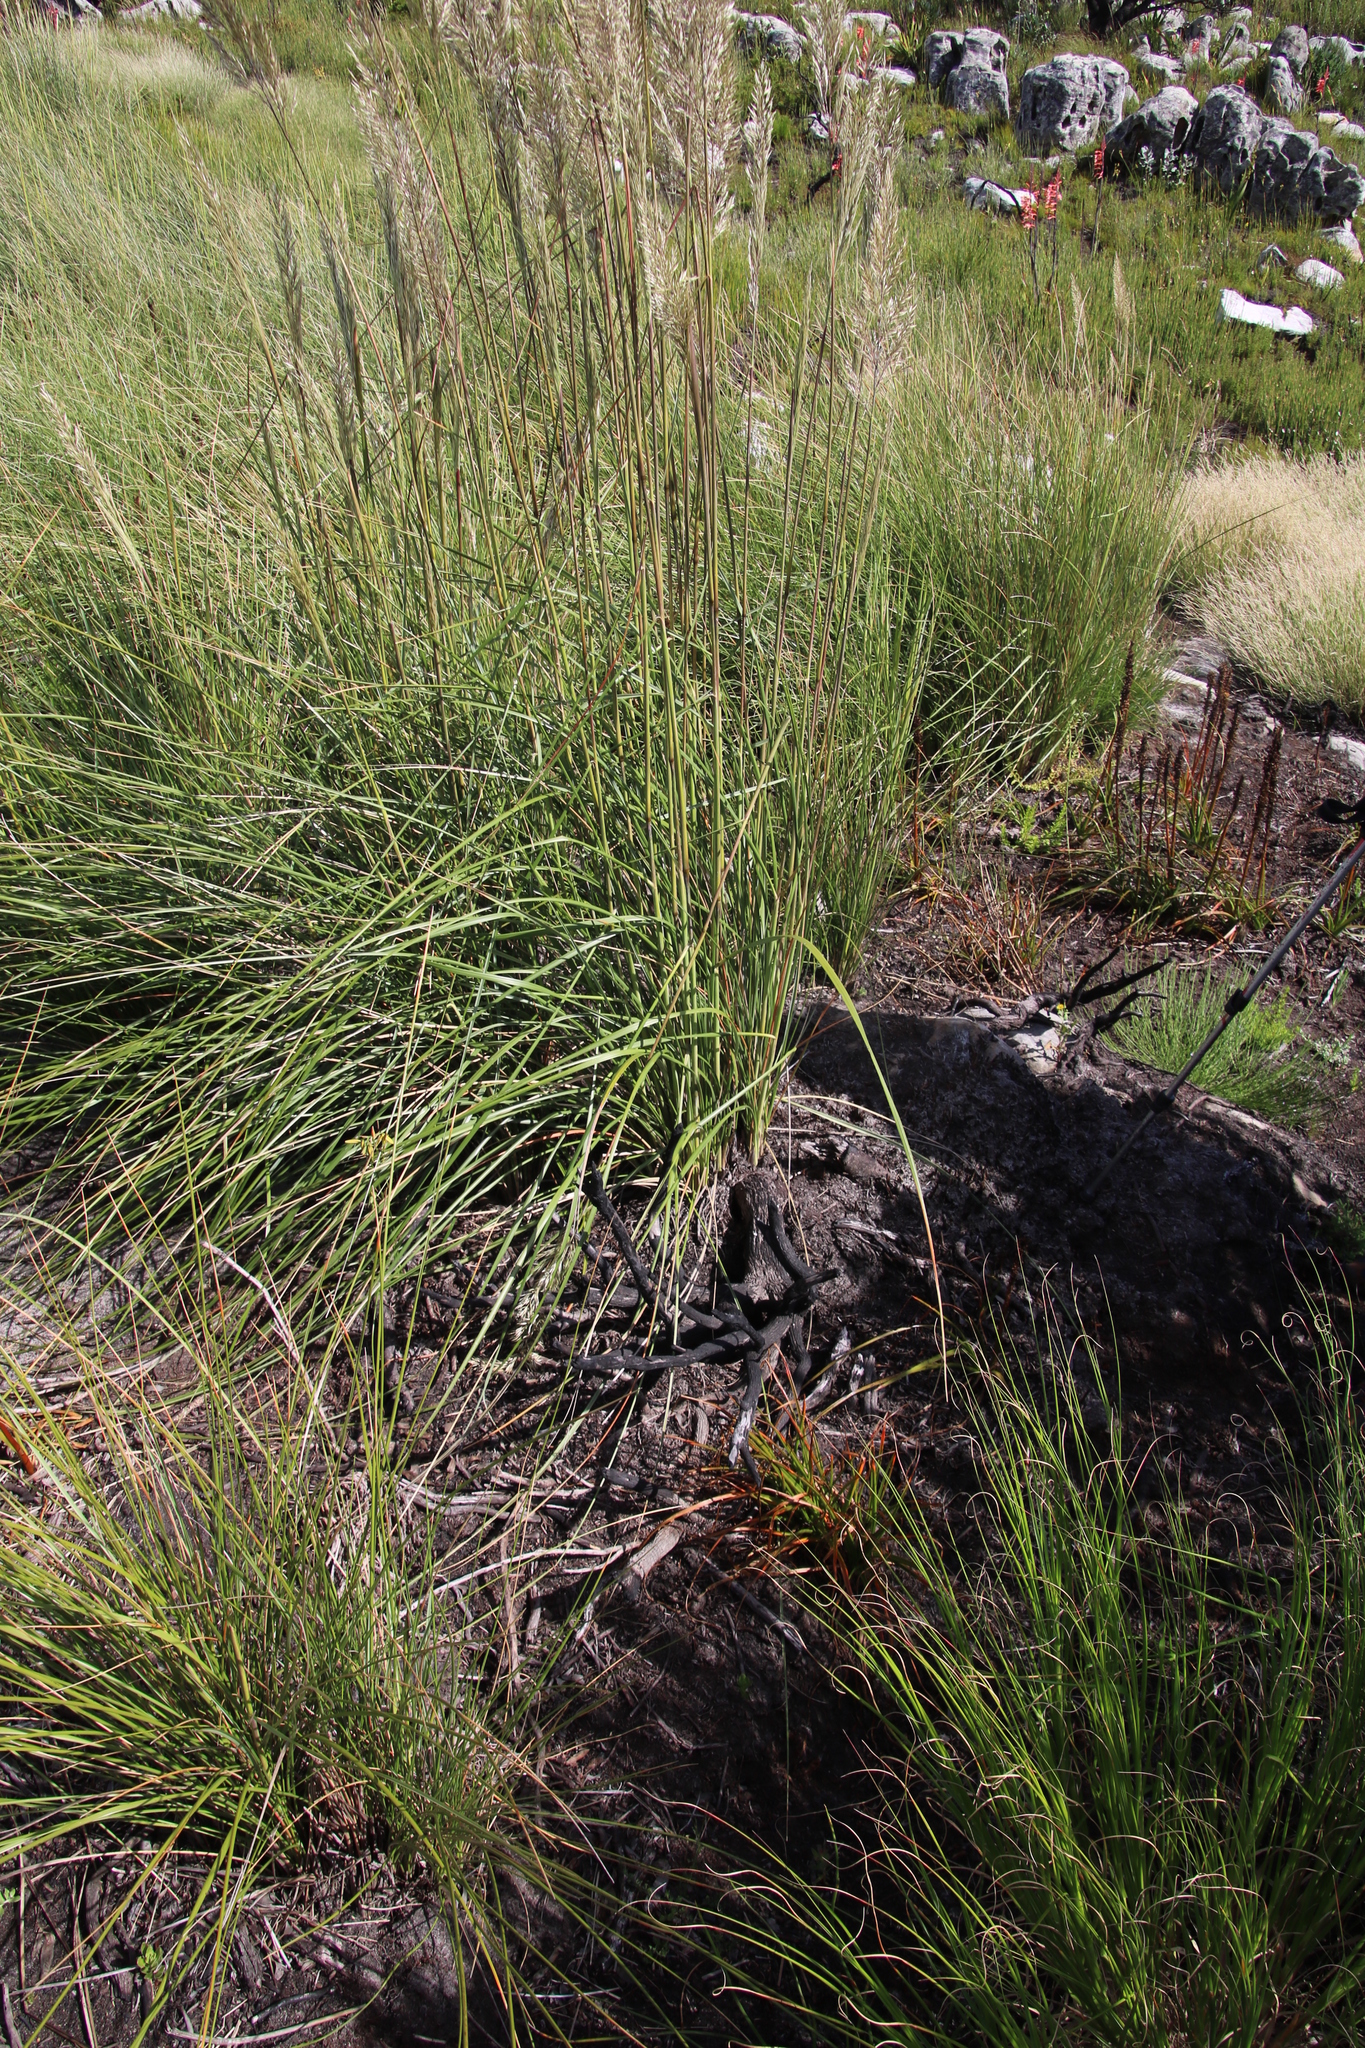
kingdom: Plantae
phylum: Tracheophyta
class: Liliopsida
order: Poales
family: Poaceae
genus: Capeochloa
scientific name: Capeochloa cincta
